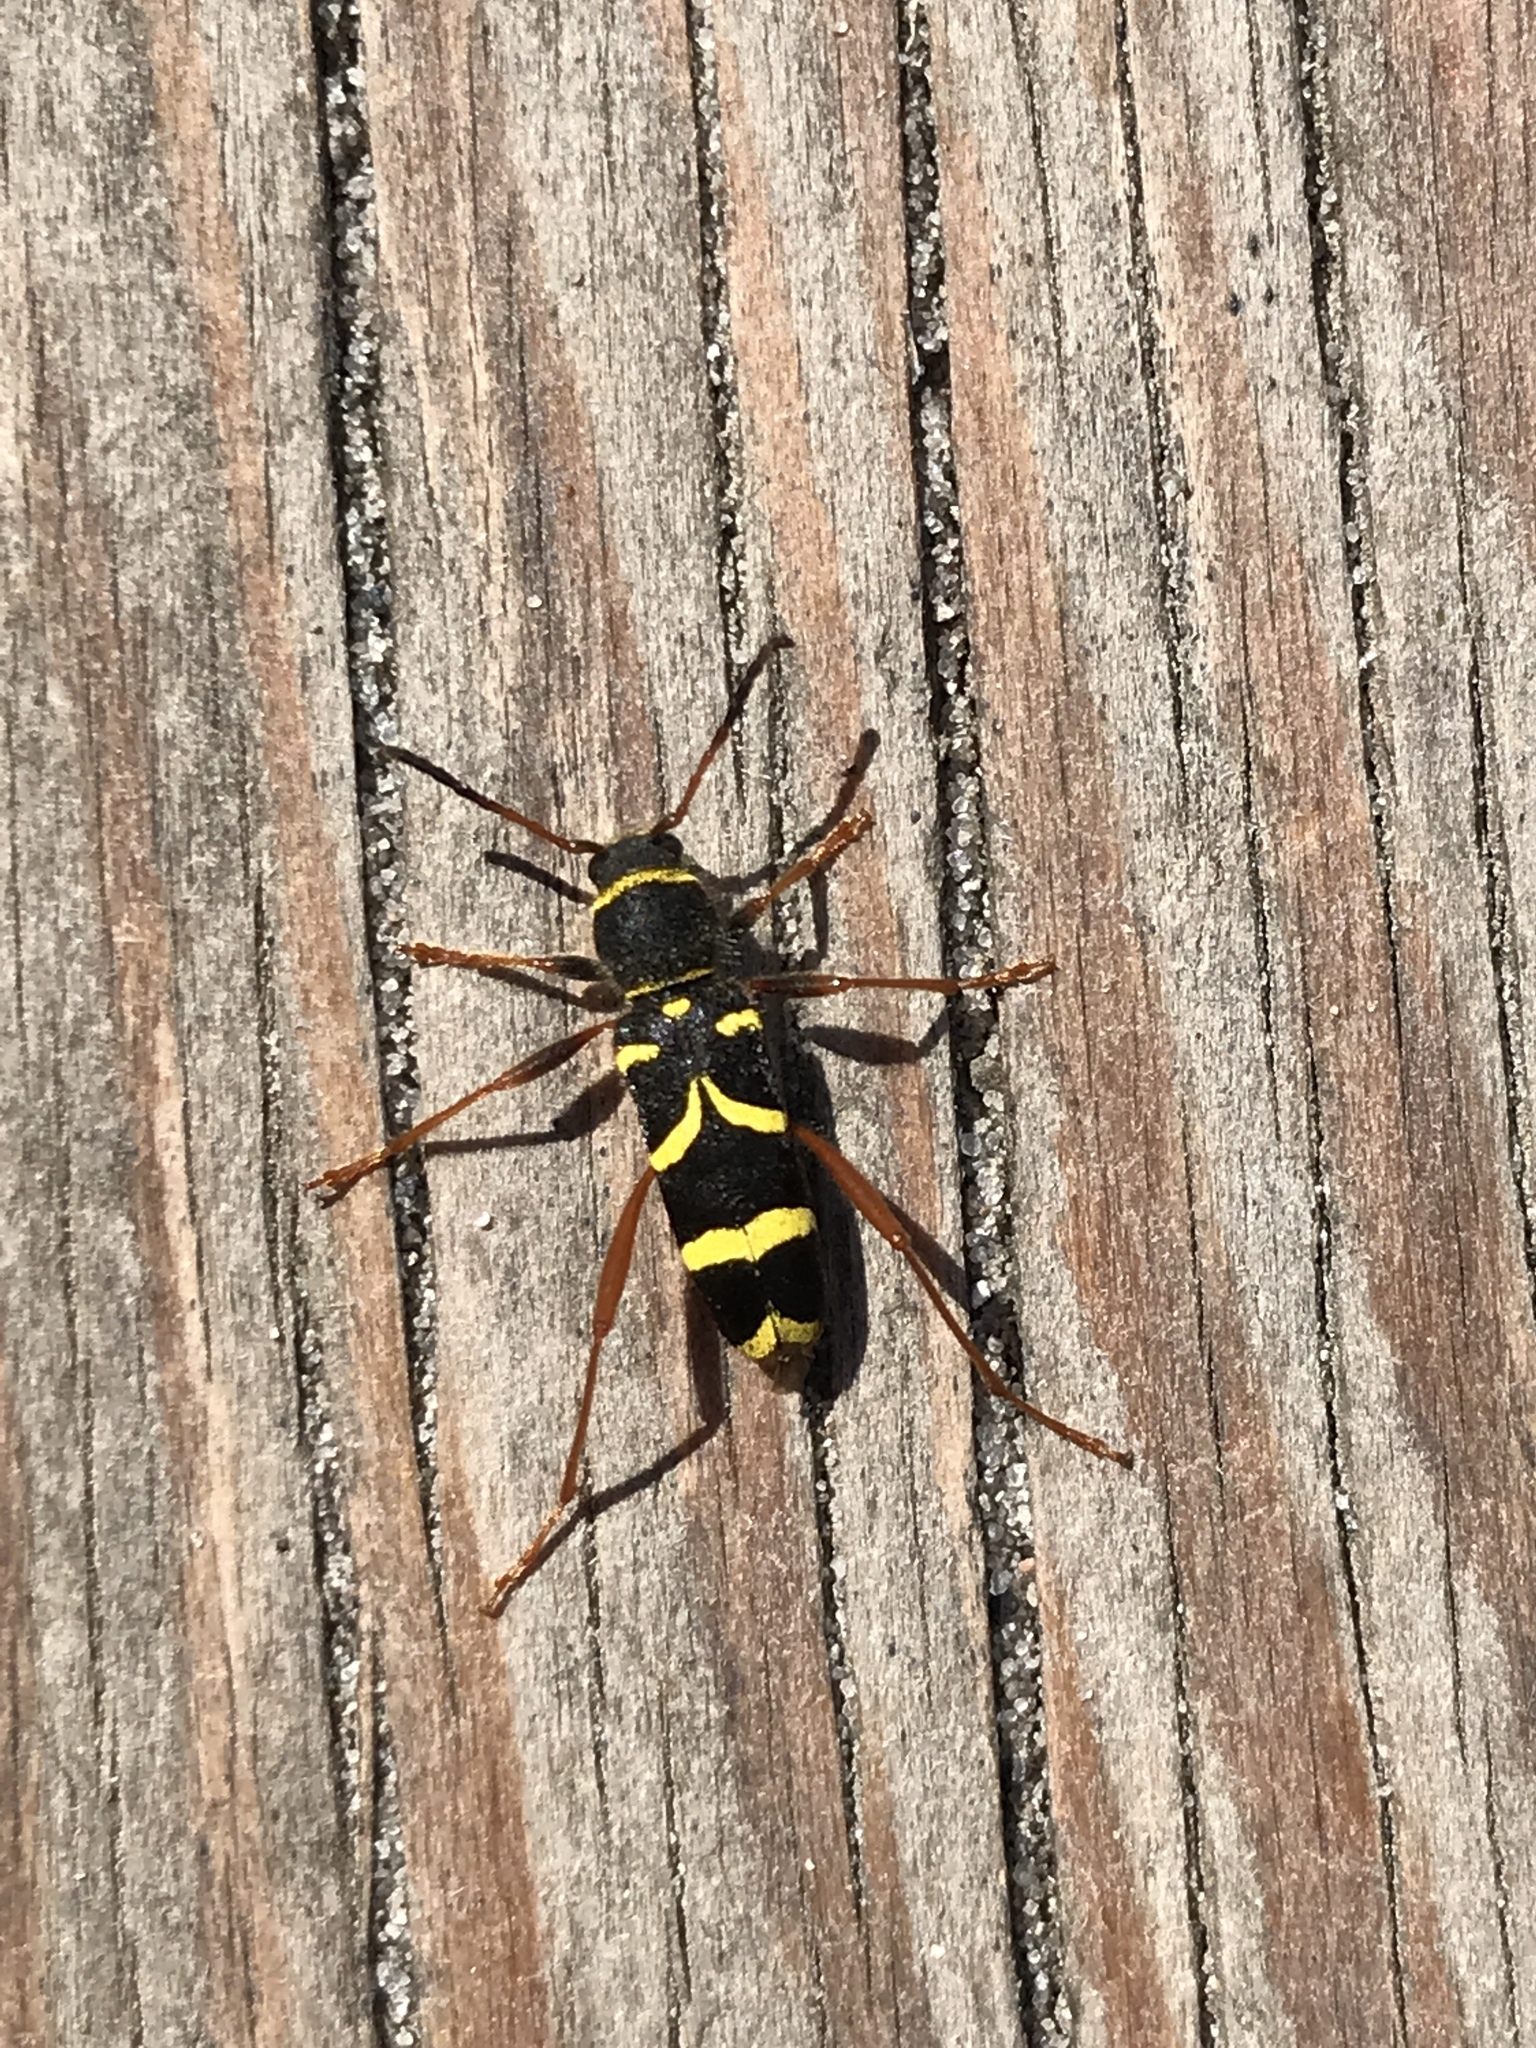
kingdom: Animalia
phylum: Arthropoda
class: Insecta
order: Coleoptera
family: Cerambycidae
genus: Clytus
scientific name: Clytus arietis
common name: Wasp beetle
